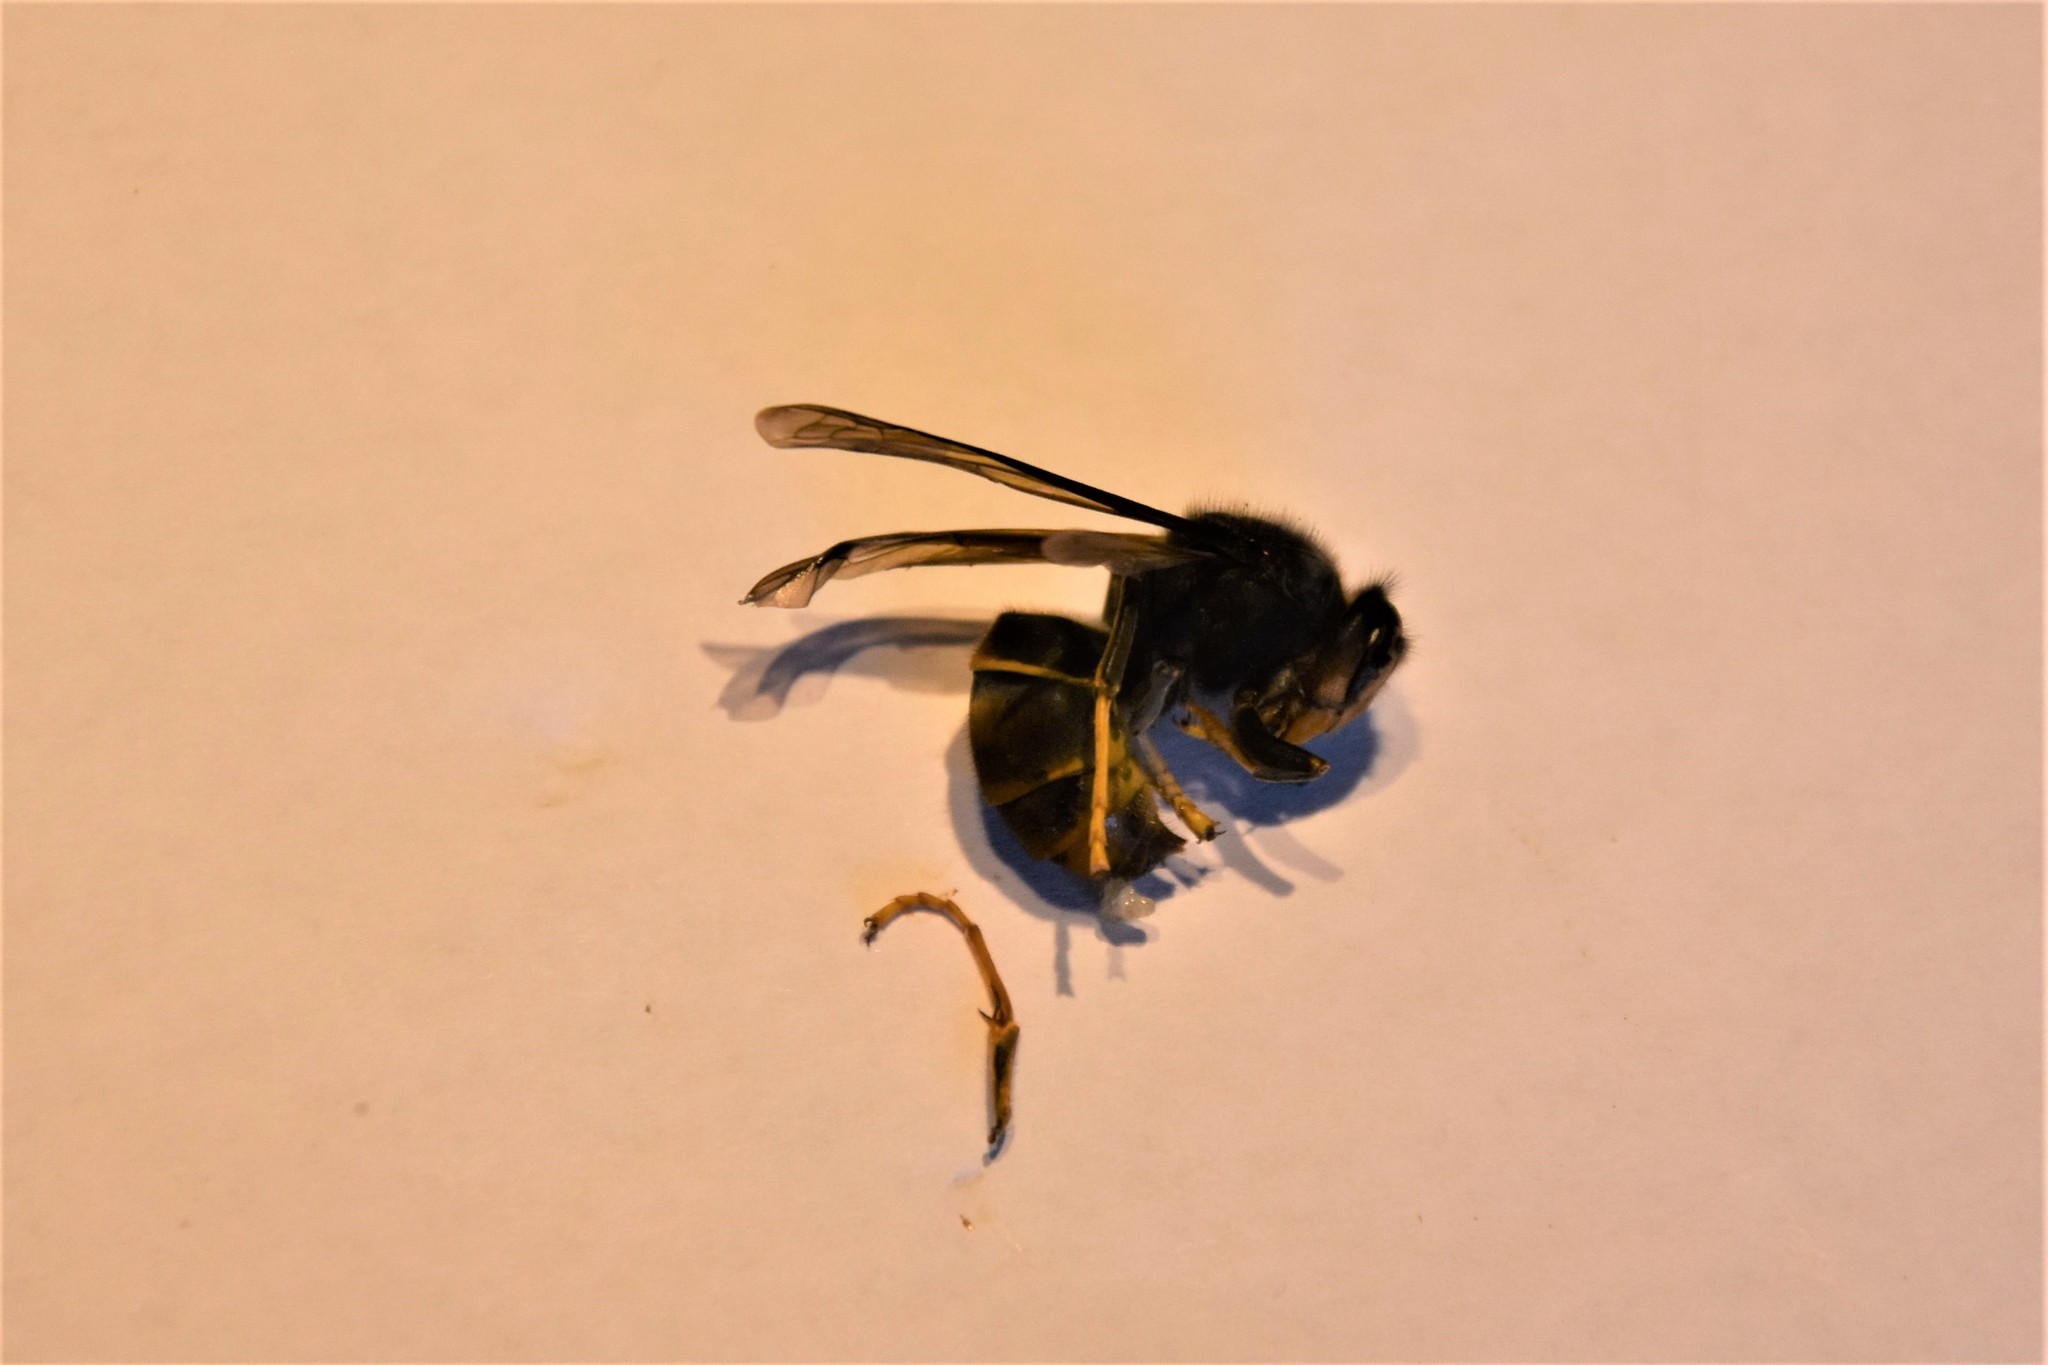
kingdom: Animalia
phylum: Arthropoda
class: Insecta
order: Hymenoptera
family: Vespidae
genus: Vespa
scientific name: Vespa velutina
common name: Asian hornet
